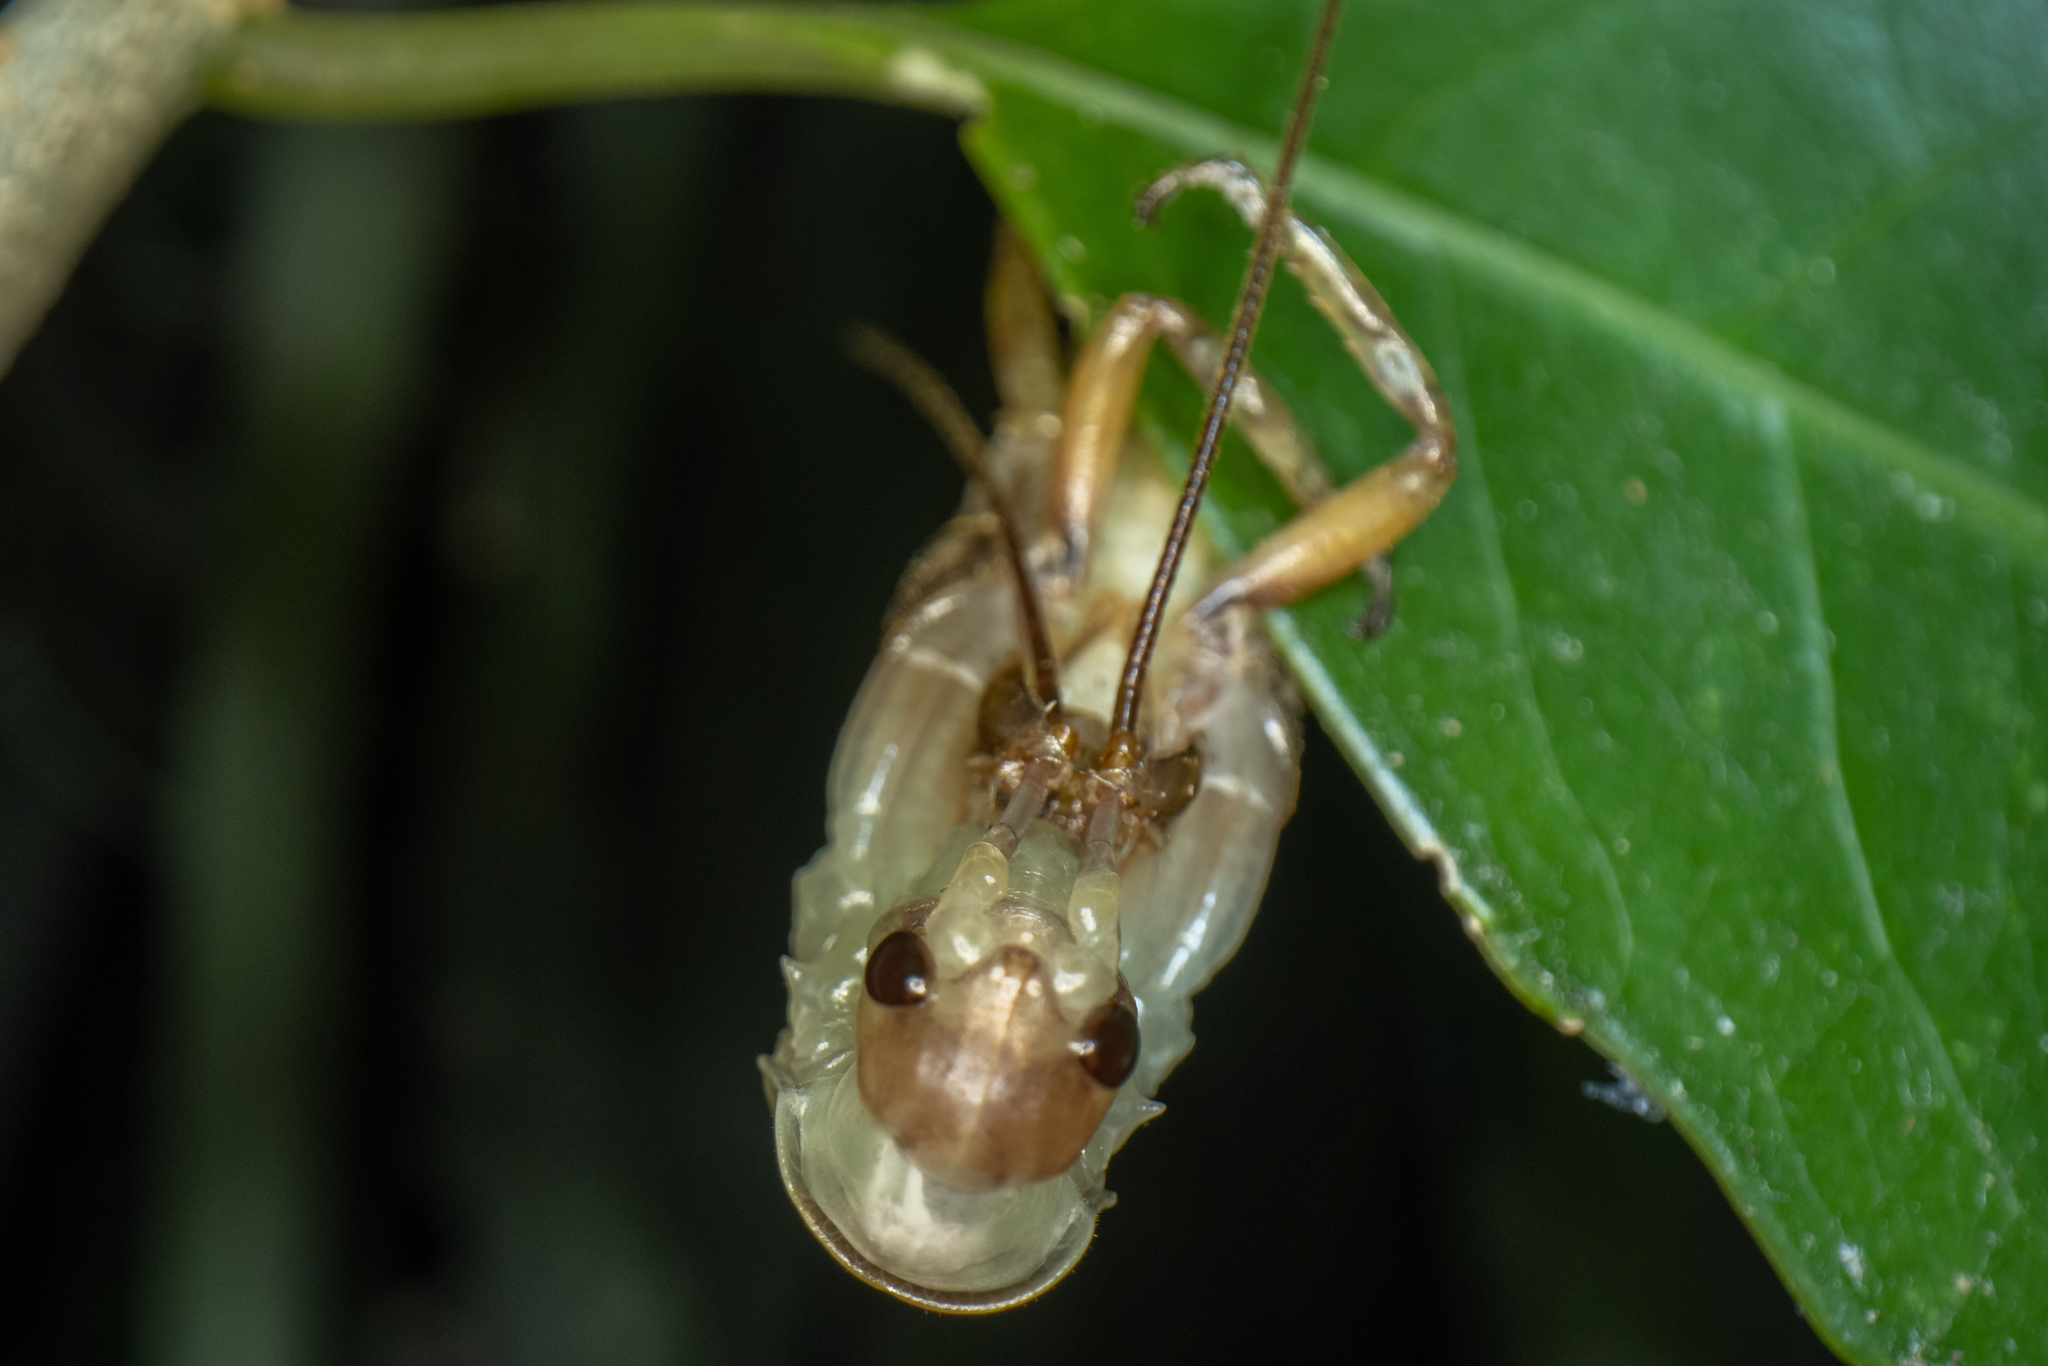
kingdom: Animalia
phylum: Arthropoda
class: Insecta
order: Orthoptera
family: Anostostomatidae
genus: Hemideina
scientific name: Hemideina crassidens
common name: Wellington tree weta
